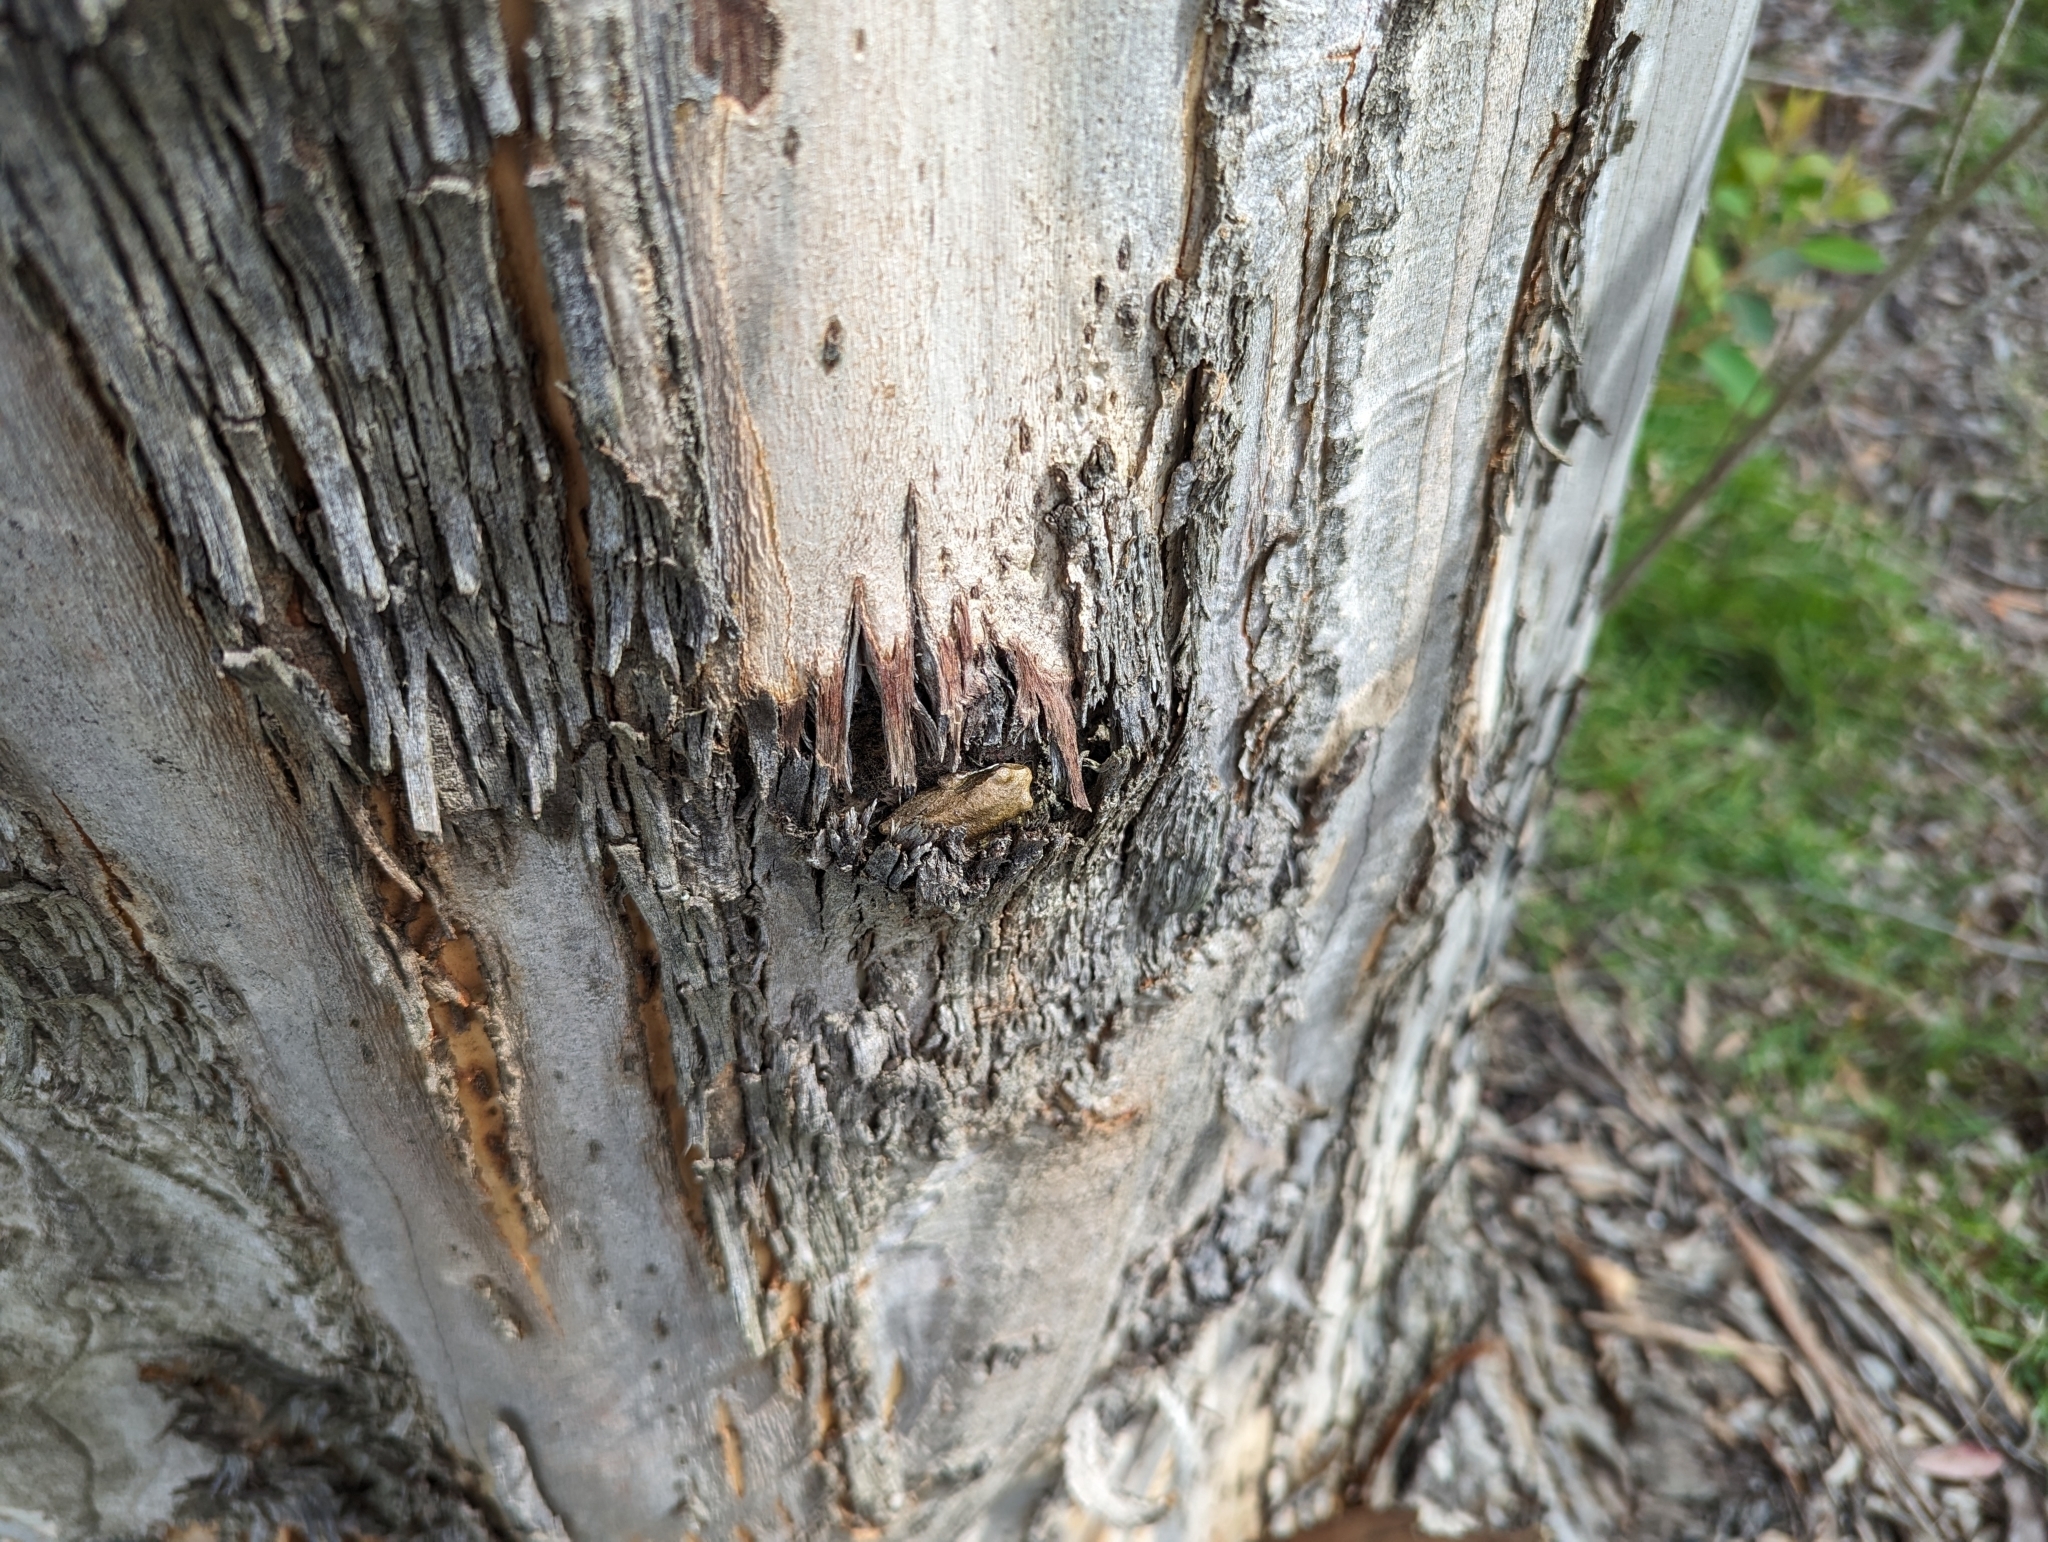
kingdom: Animalia
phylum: Chordata
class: Amphibia
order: Anura
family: Hyperoliidae
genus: Hyperolius
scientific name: Hyperolius marmoratus
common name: Painted reed frog
